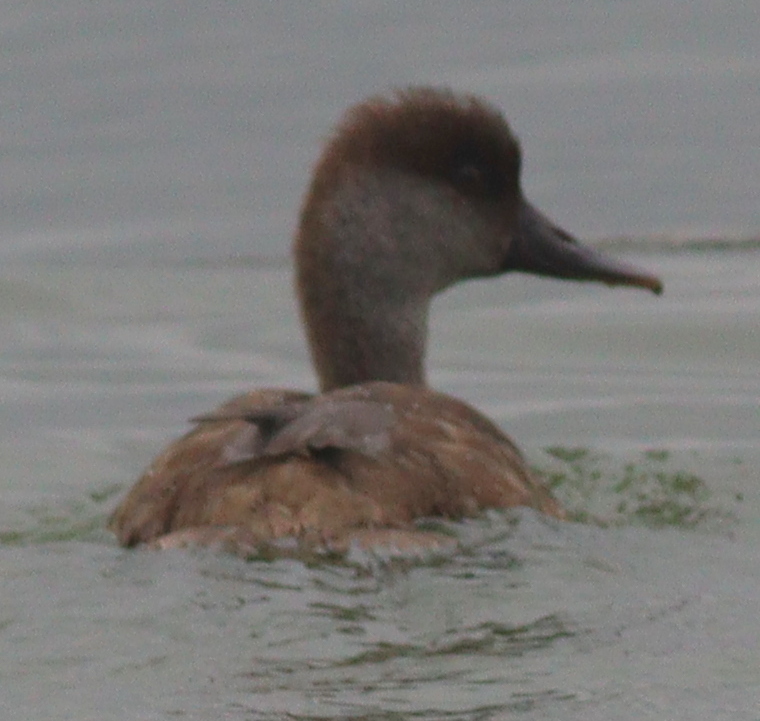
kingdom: Animalia
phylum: Chordata
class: Aves
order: Anseriformes
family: Anatidae
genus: Netta
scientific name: Netta rufina
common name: Red-crested pochard
